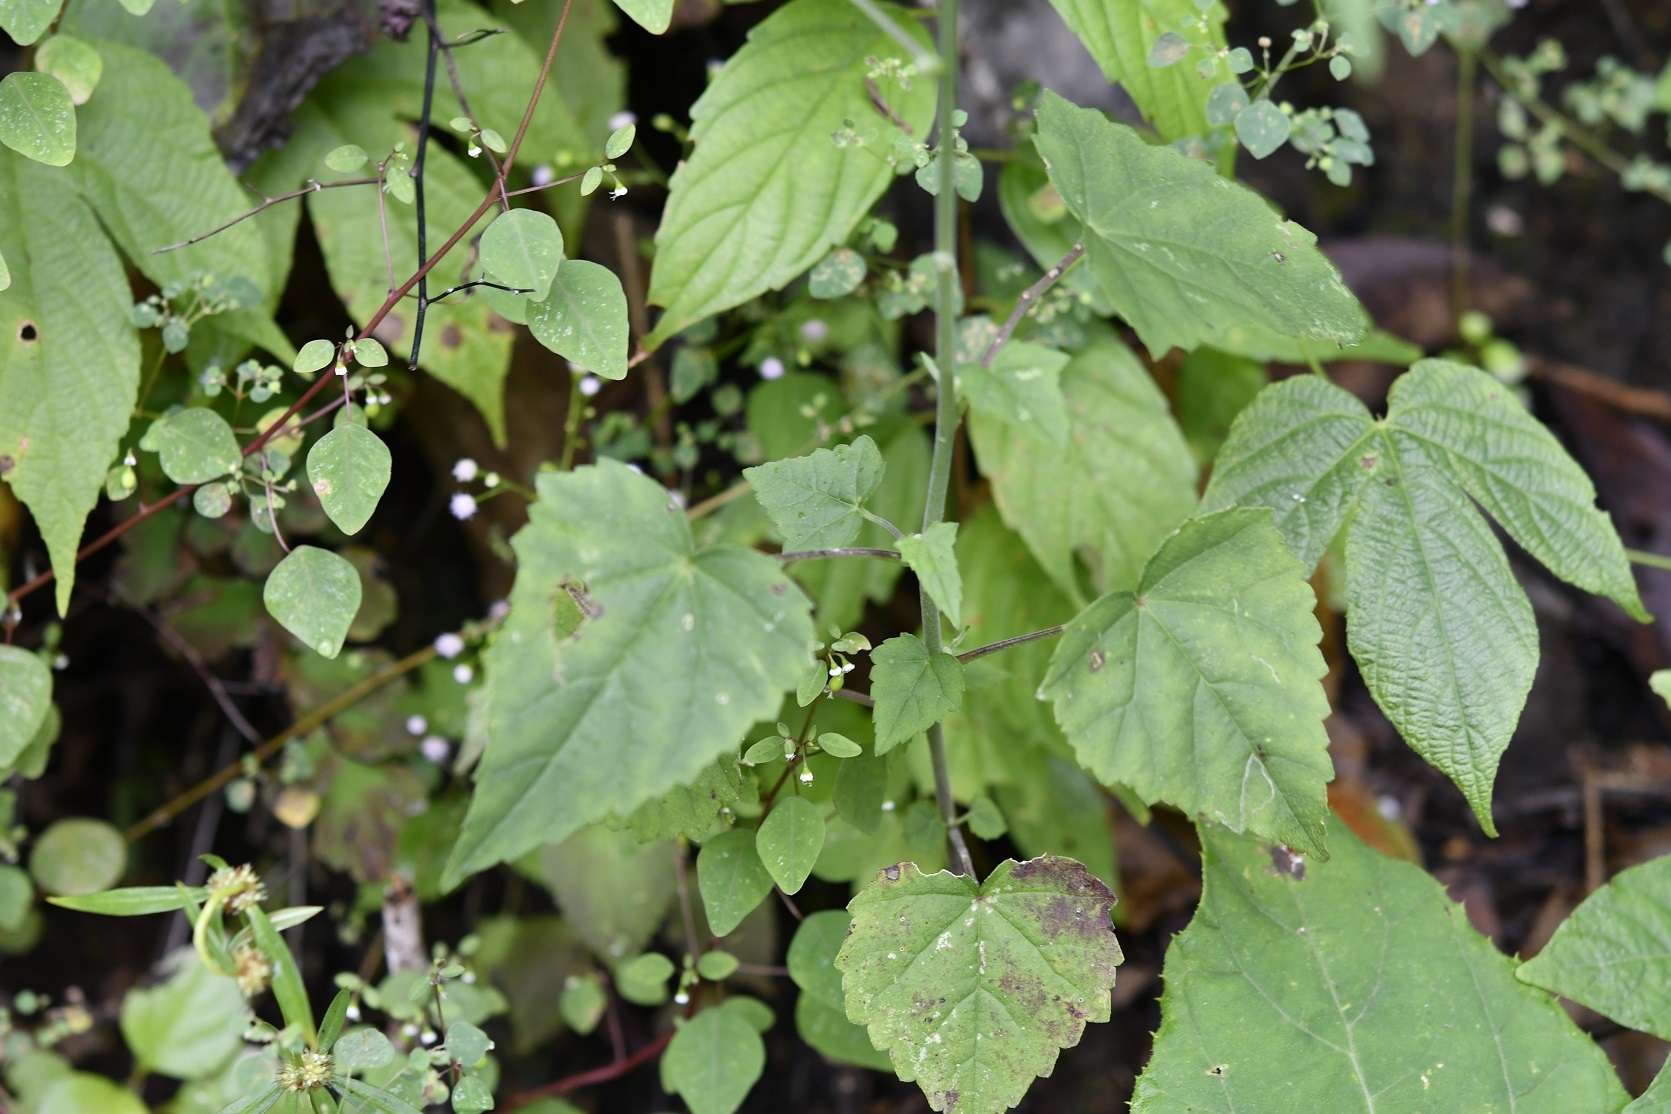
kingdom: Plantae
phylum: Tracheophyta
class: Magnoliopsida
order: Malvales
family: Malvaceae
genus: Anoda
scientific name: Anoda crenatiflora
